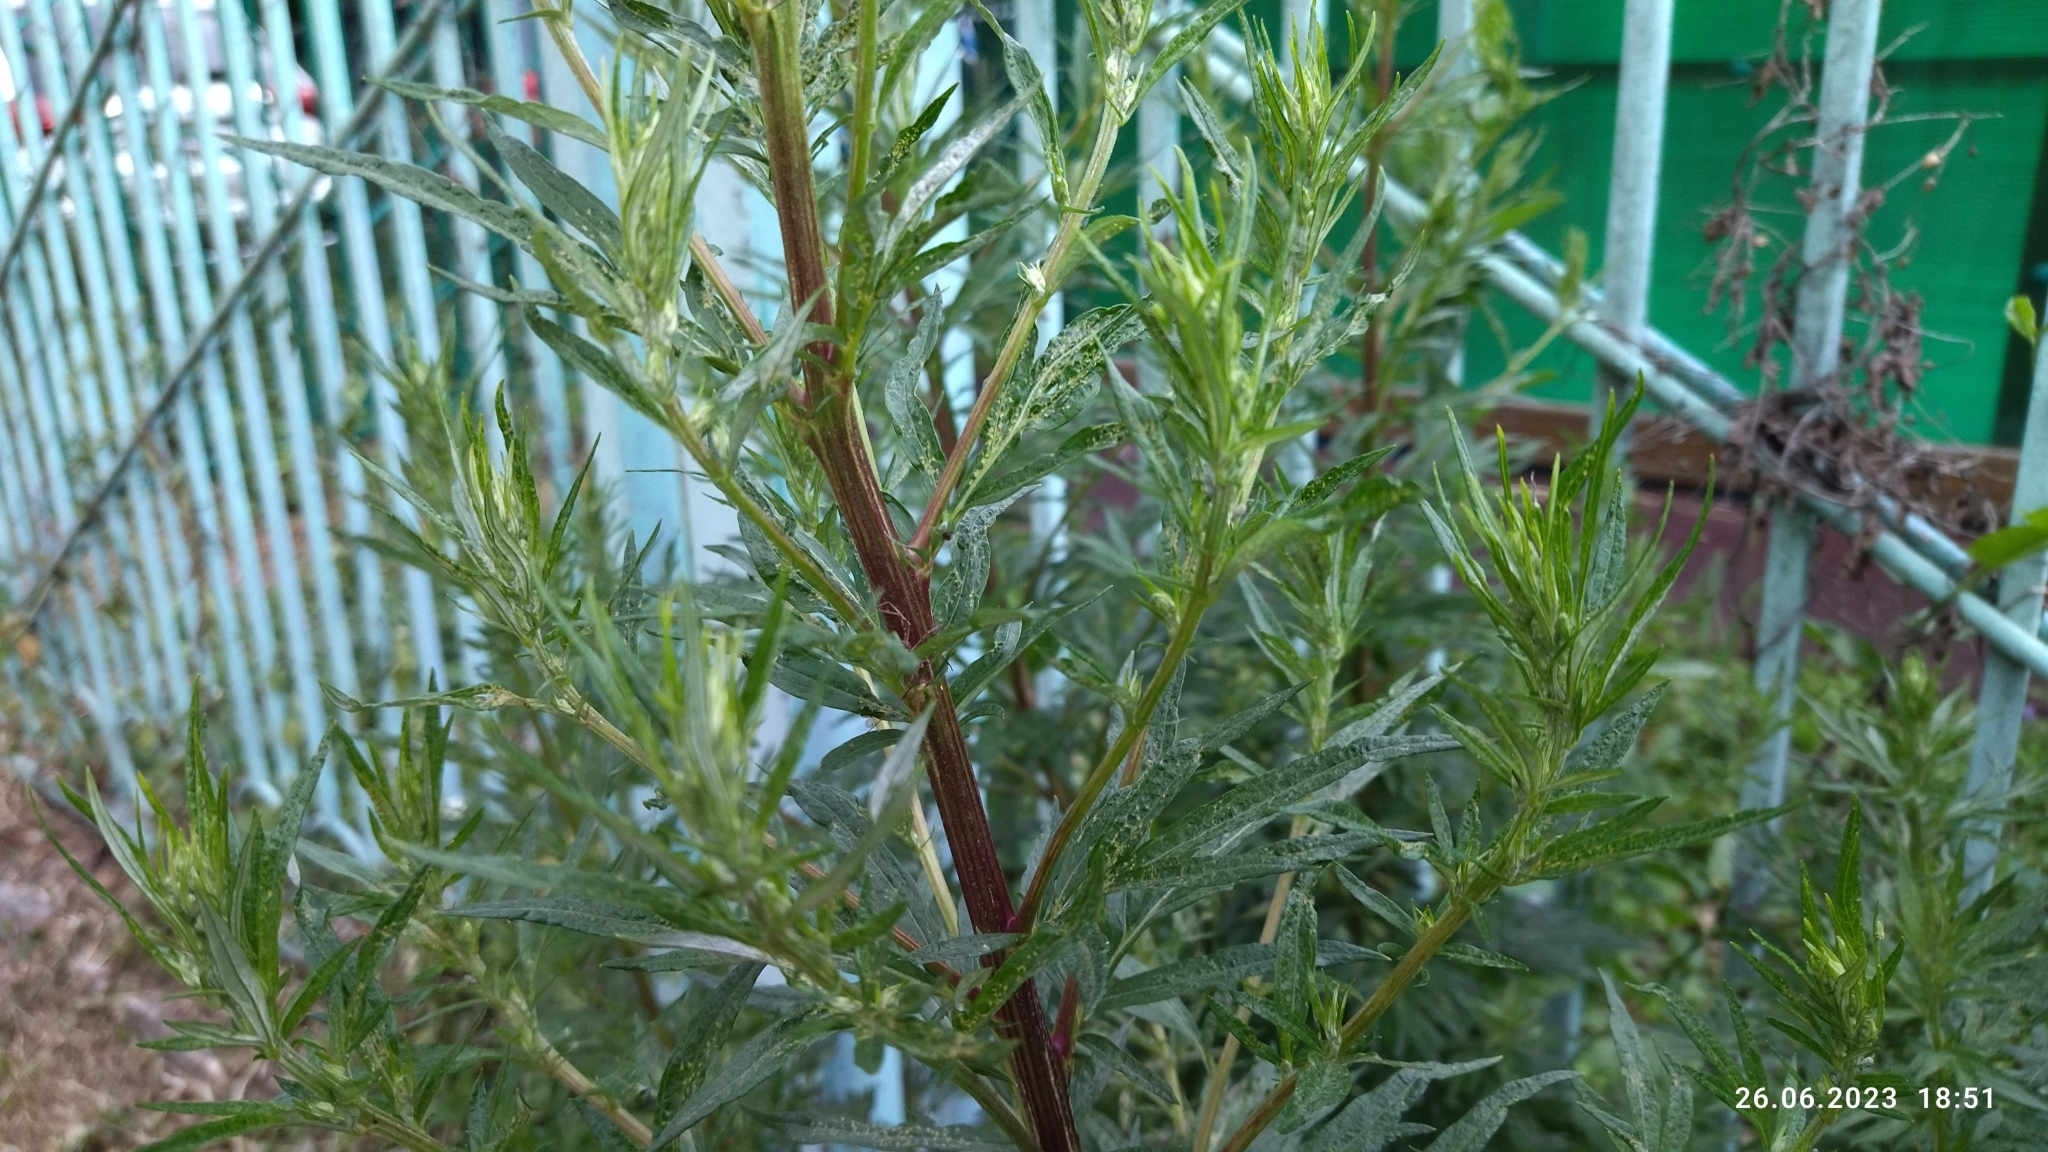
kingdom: Plantae
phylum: Tracheophyta
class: Magnoliopsida
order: Asterales
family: Asteraceae
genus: Artemisia
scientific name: Artemisia vulgaris
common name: Mugwort
